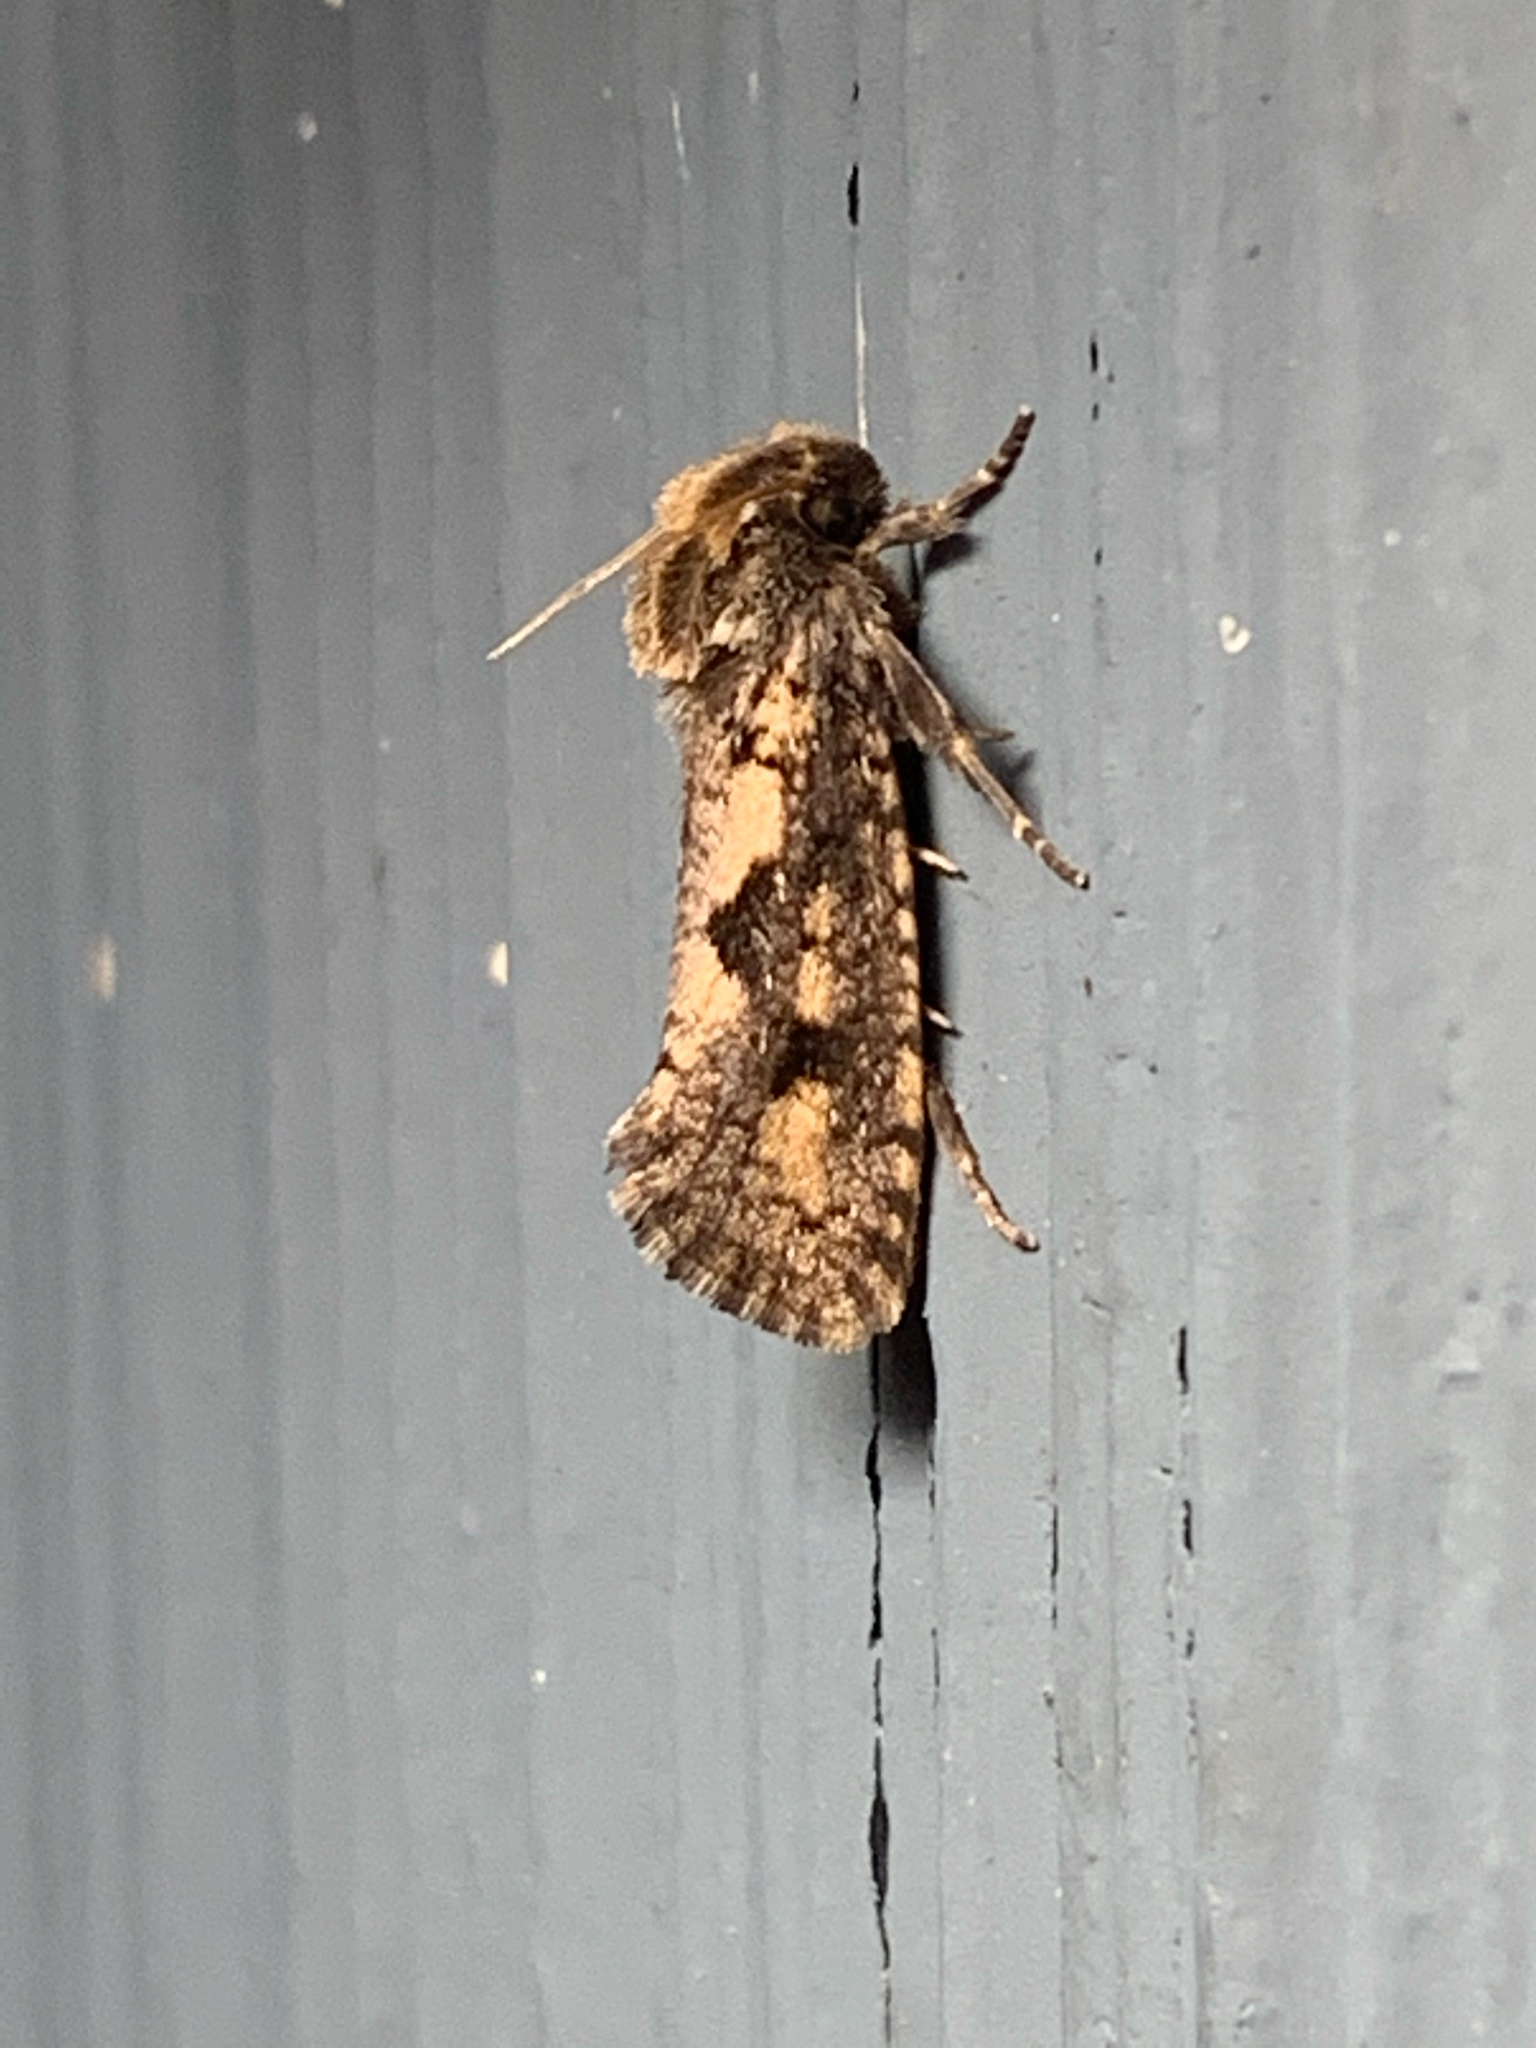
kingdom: Animalia
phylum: Arthropoda
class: Insecta
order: Lepidoptera
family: Tineidae
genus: Acrolophus
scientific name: Acrolophus popeanella
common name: Clemens' grass tubeworm moth
